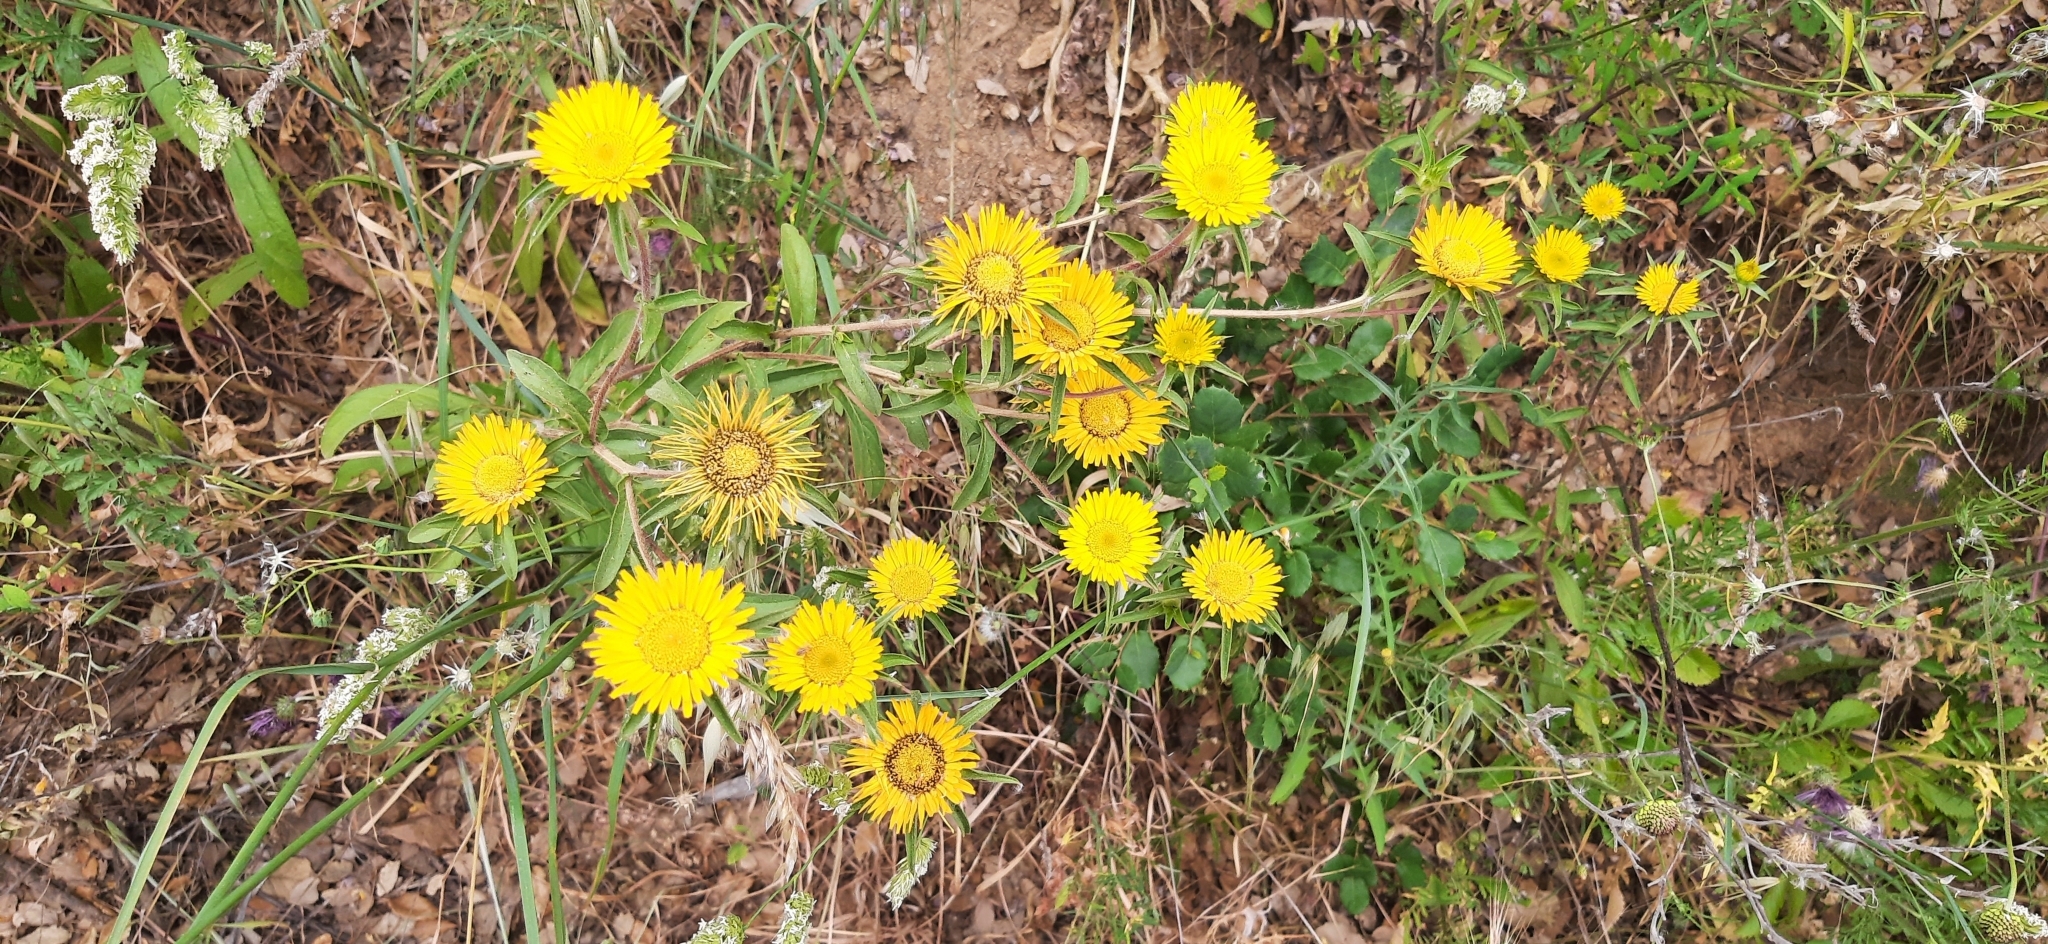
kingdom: Plantae
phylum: Tracheophyta
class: Magnoliopsida
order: Asterales
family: Asteraceae
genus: Pallenis
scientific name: Pallenis spinosa
